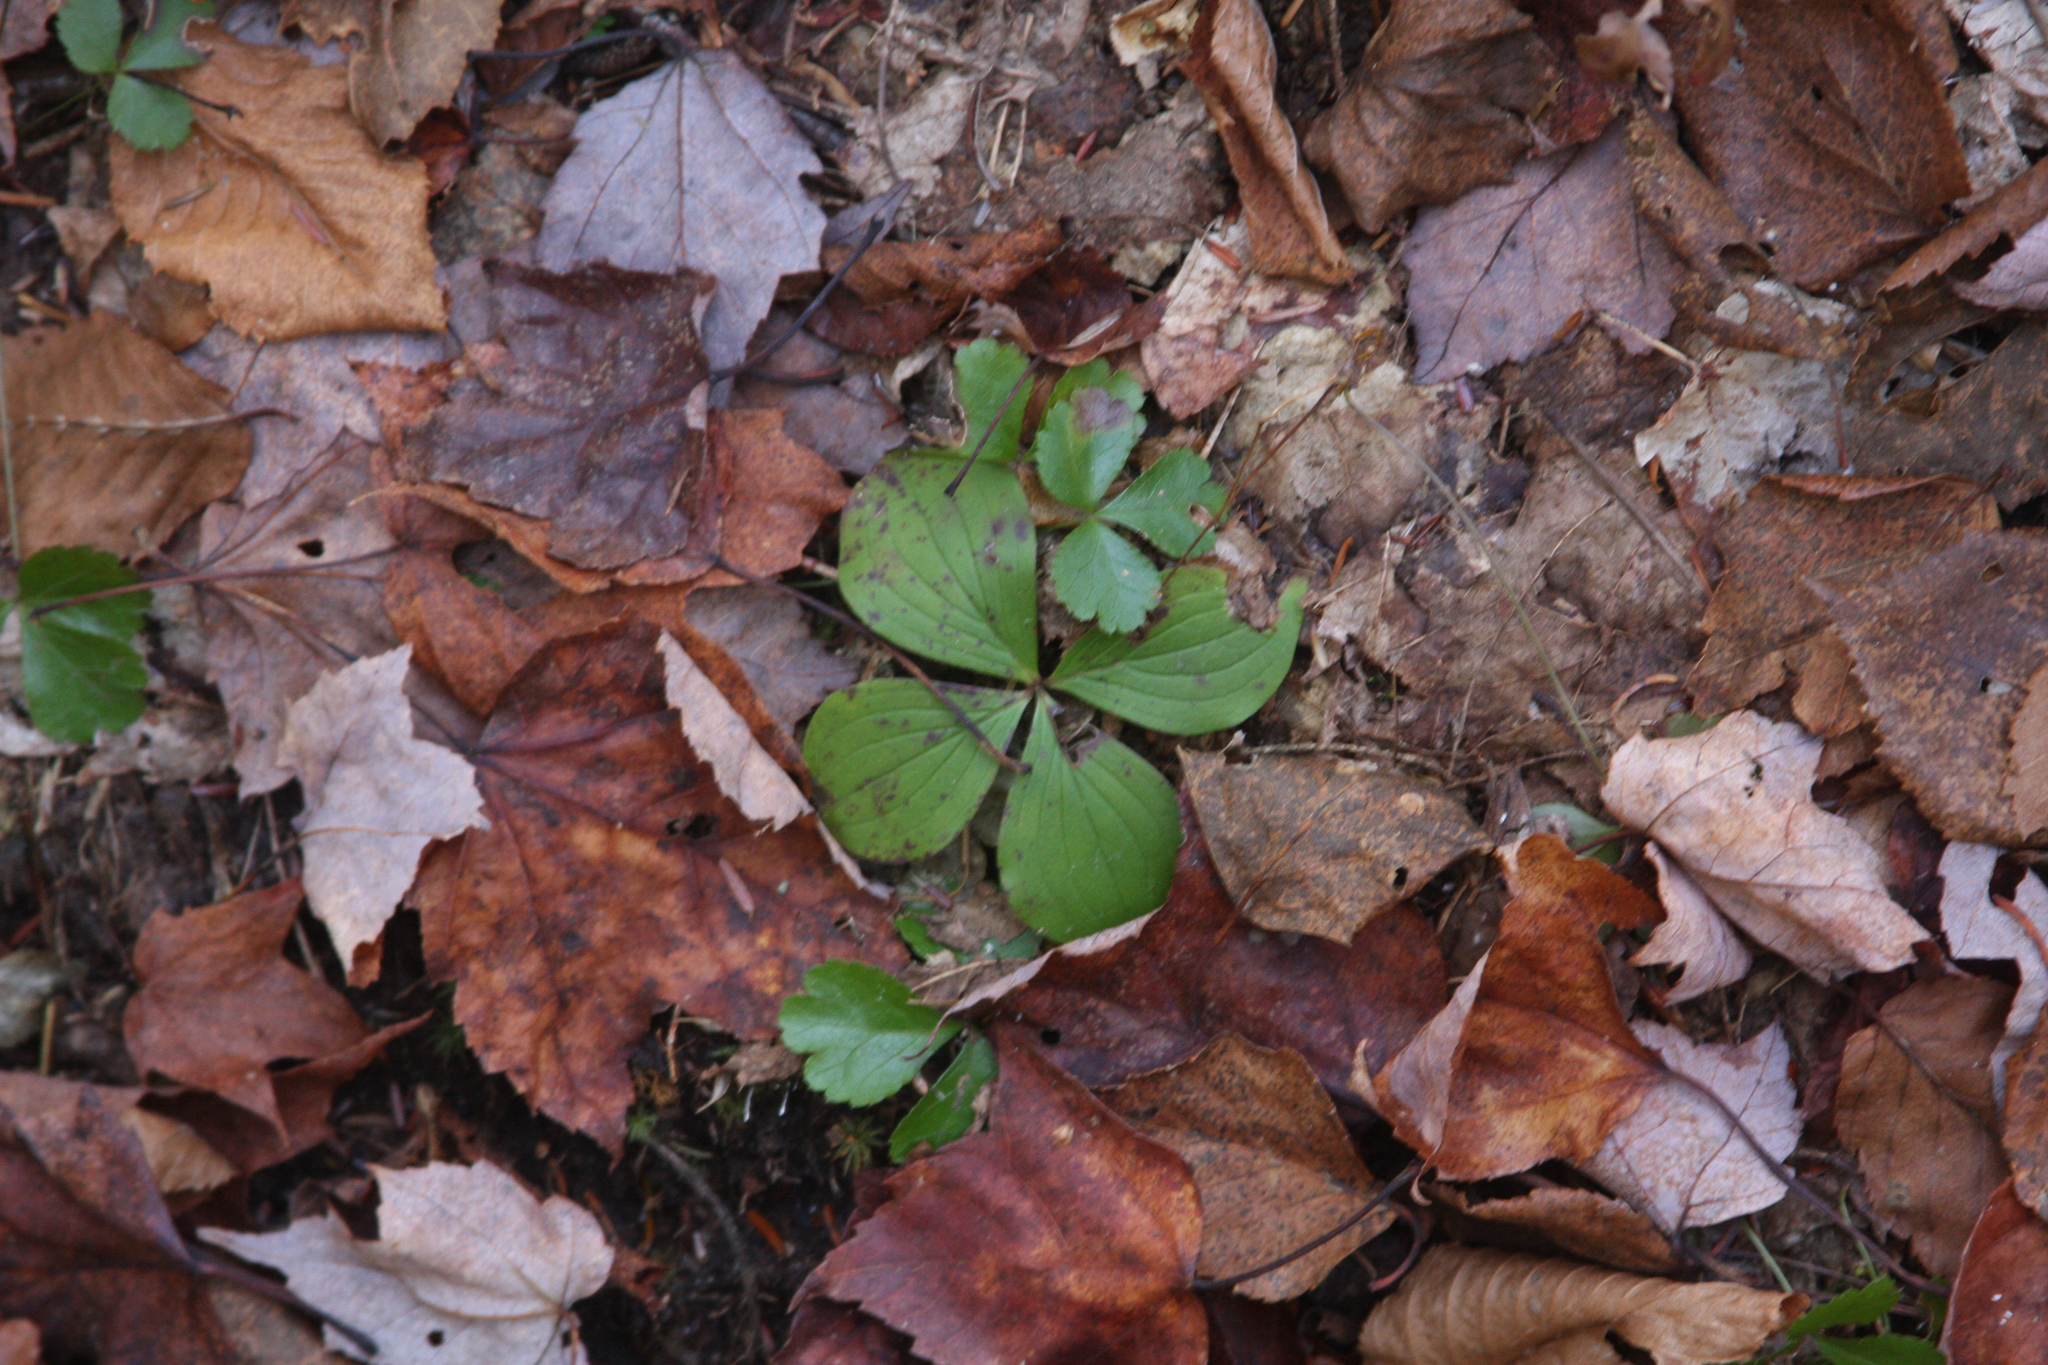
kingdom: Plantae
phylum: Tracheophyta
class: Magnoliopsida
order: Cornales
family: Cornaceae
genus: Cornus
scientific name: Cornus canadensis
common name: Creeping dogwood
